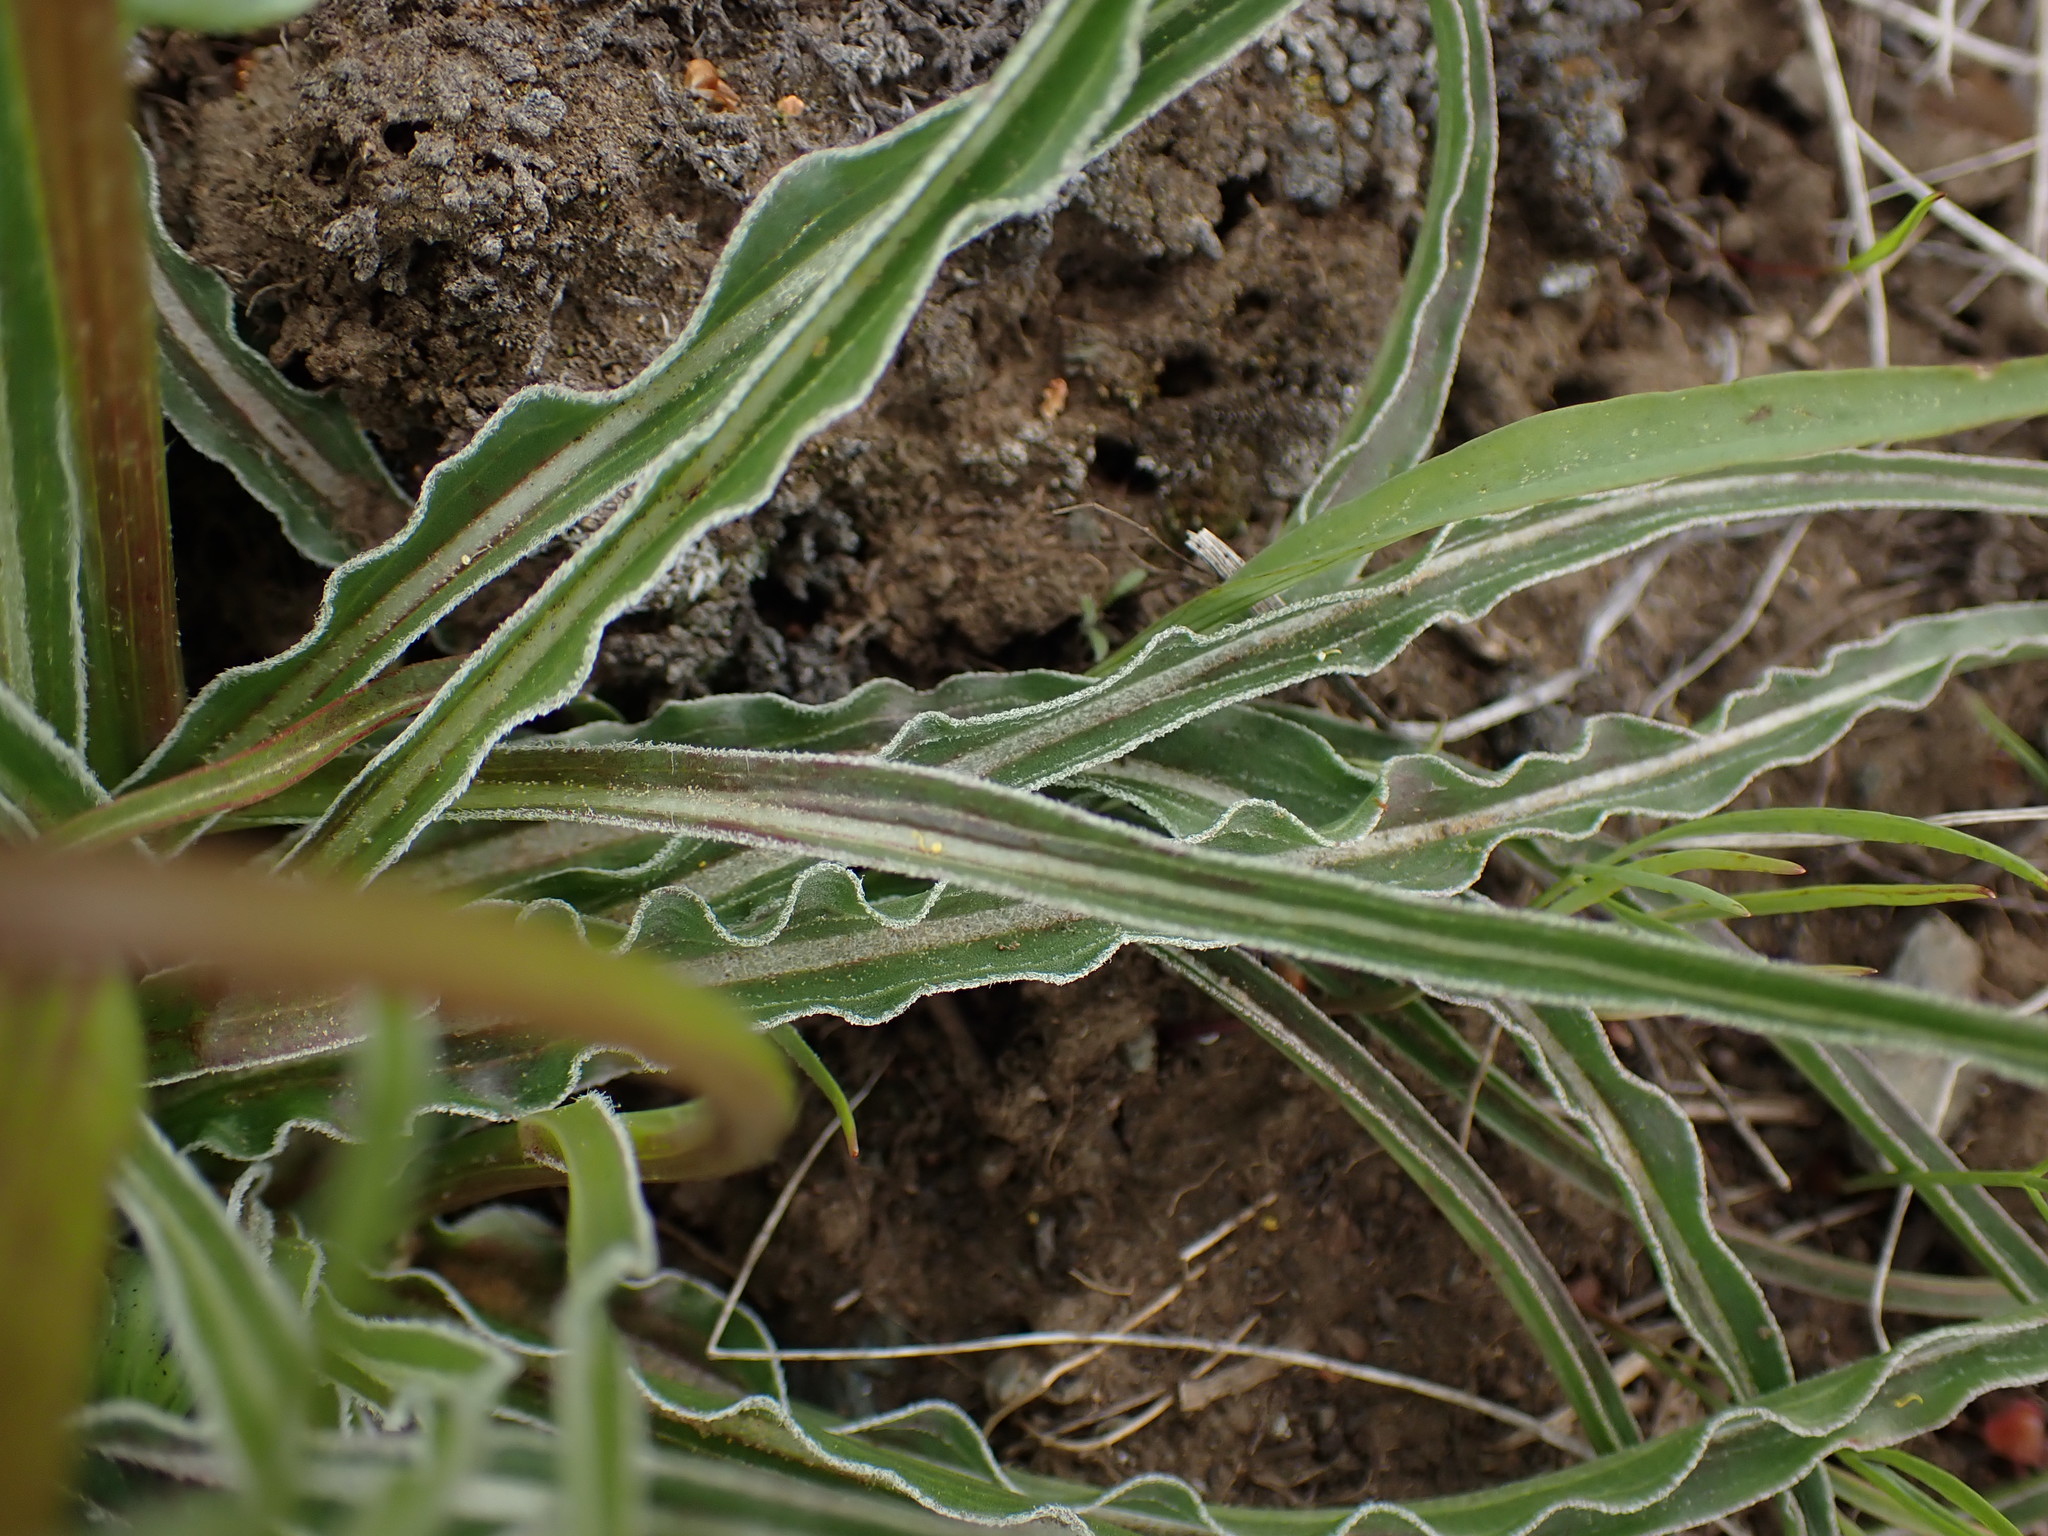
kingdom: Plantae
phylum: Tracheophyta
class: Magnoliopsida
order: Asterales
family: Asteraceae
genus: Microseris
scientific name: Microseris troximoides
